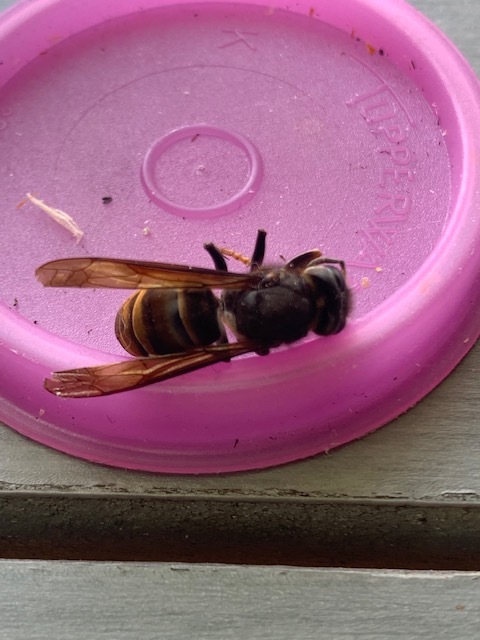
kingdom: Animalia
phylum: Arthropoda
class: Insecta
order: Hymenoptera
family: Vespidae
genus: Vespa
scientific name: Vespa velutina
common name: Asian hornet
